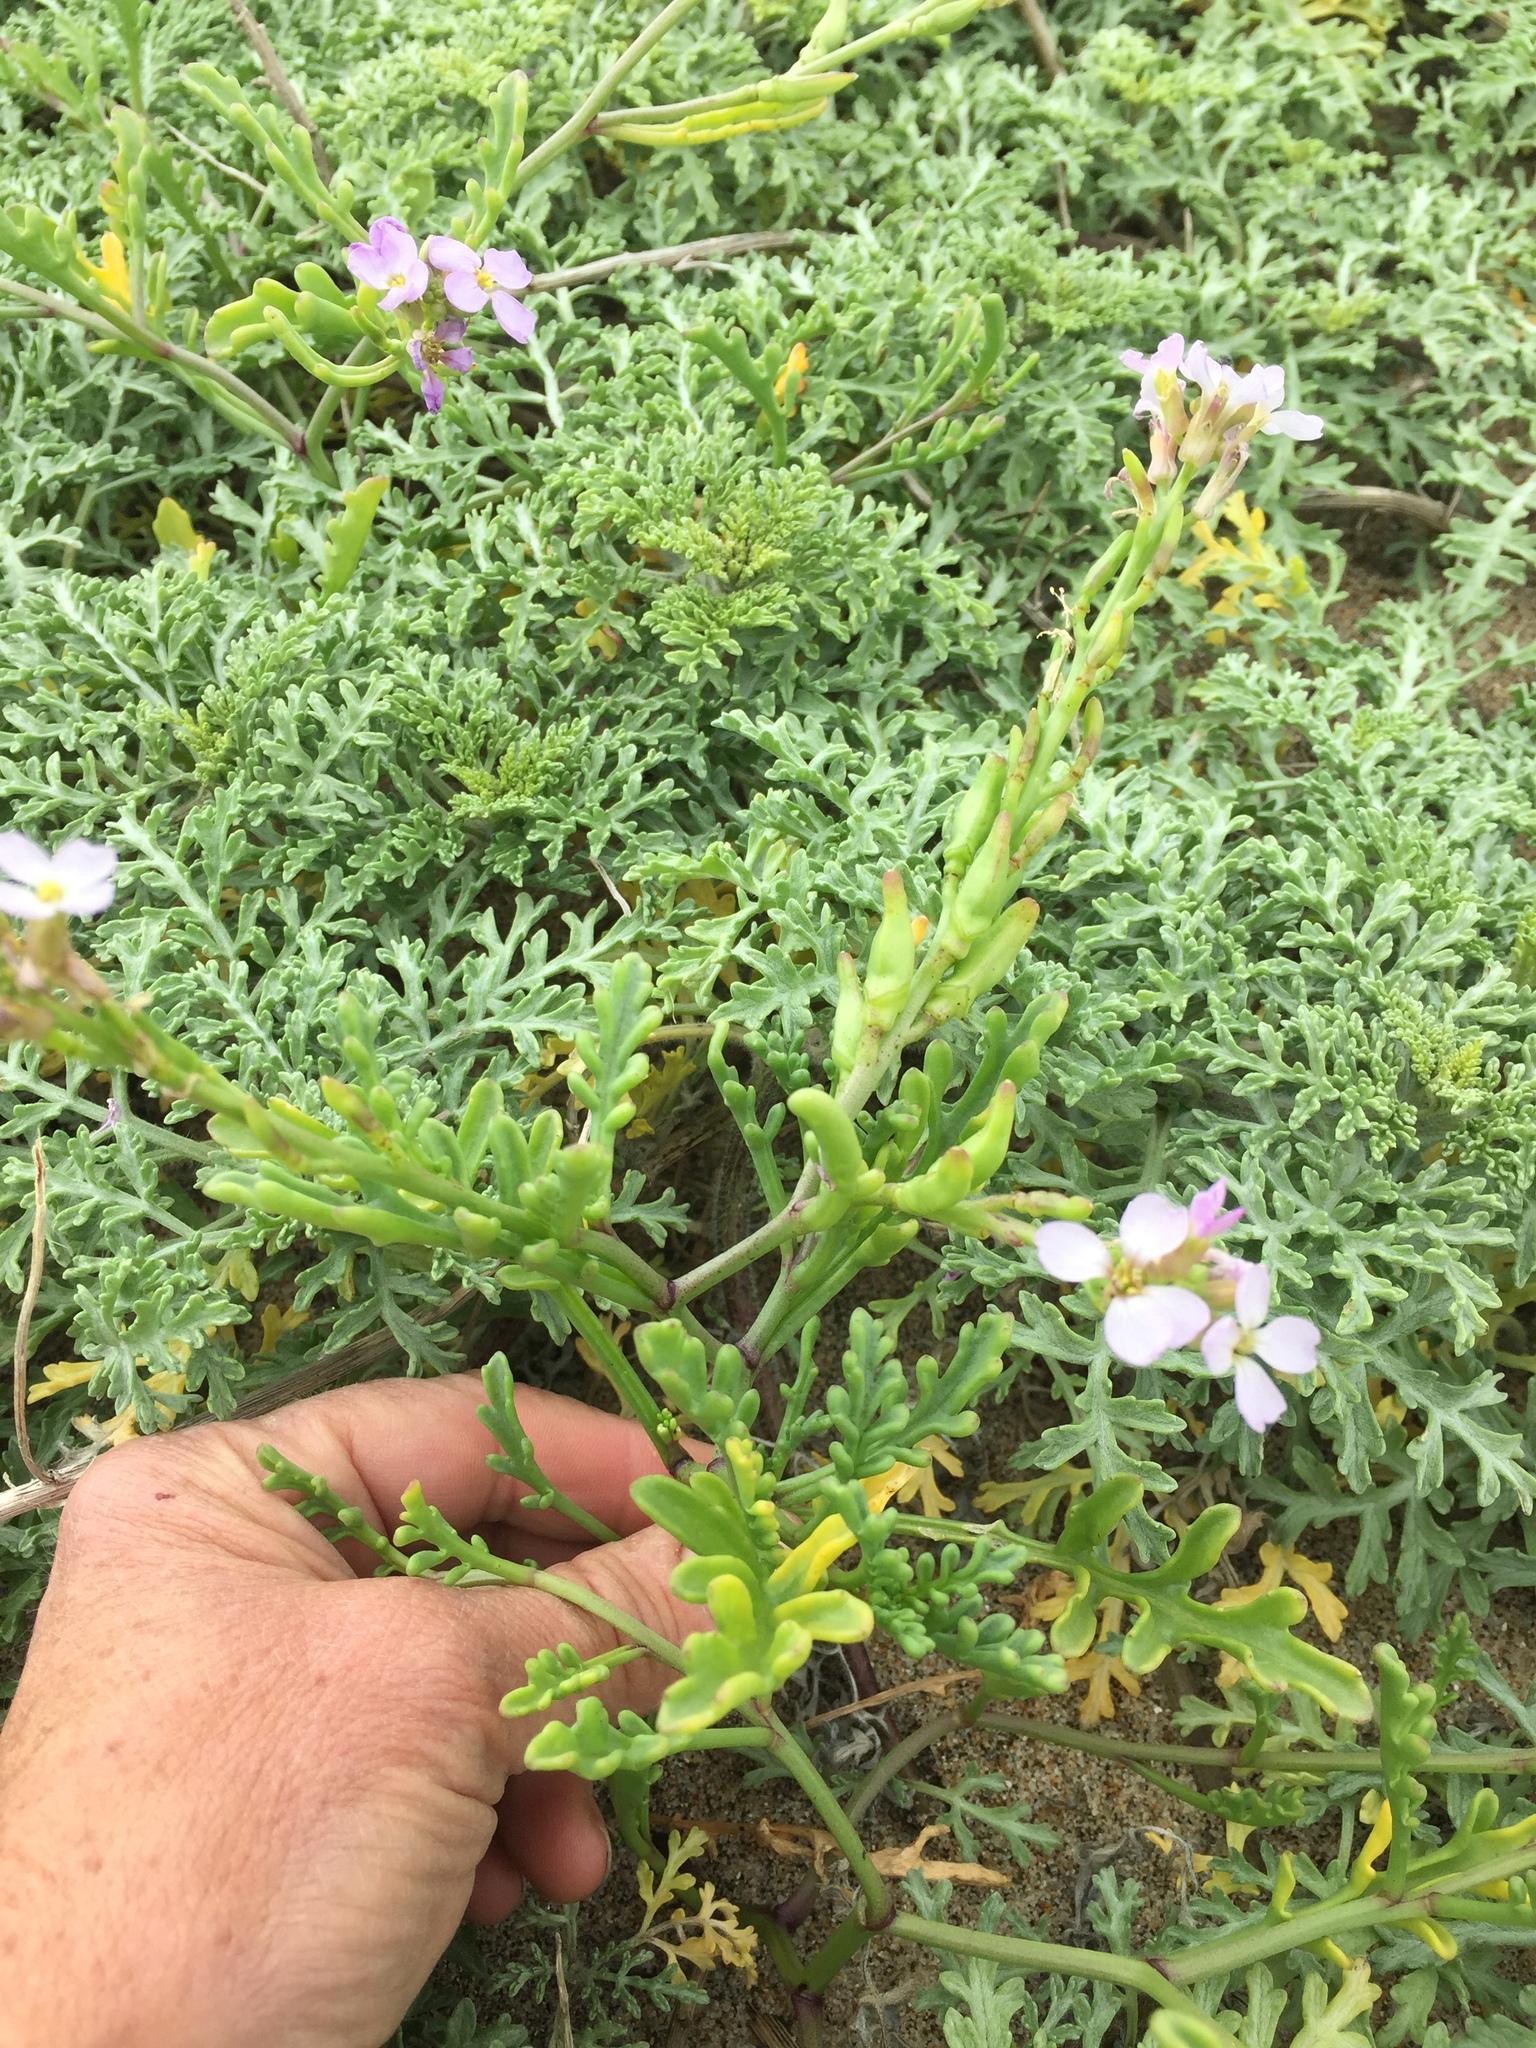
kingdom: Plantae
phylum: Tracheophyta
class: Magnoliopsida
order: Brassicales
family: Brassicaceae
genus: Cakile
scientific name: Cakile maritima
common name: Sea rocket
